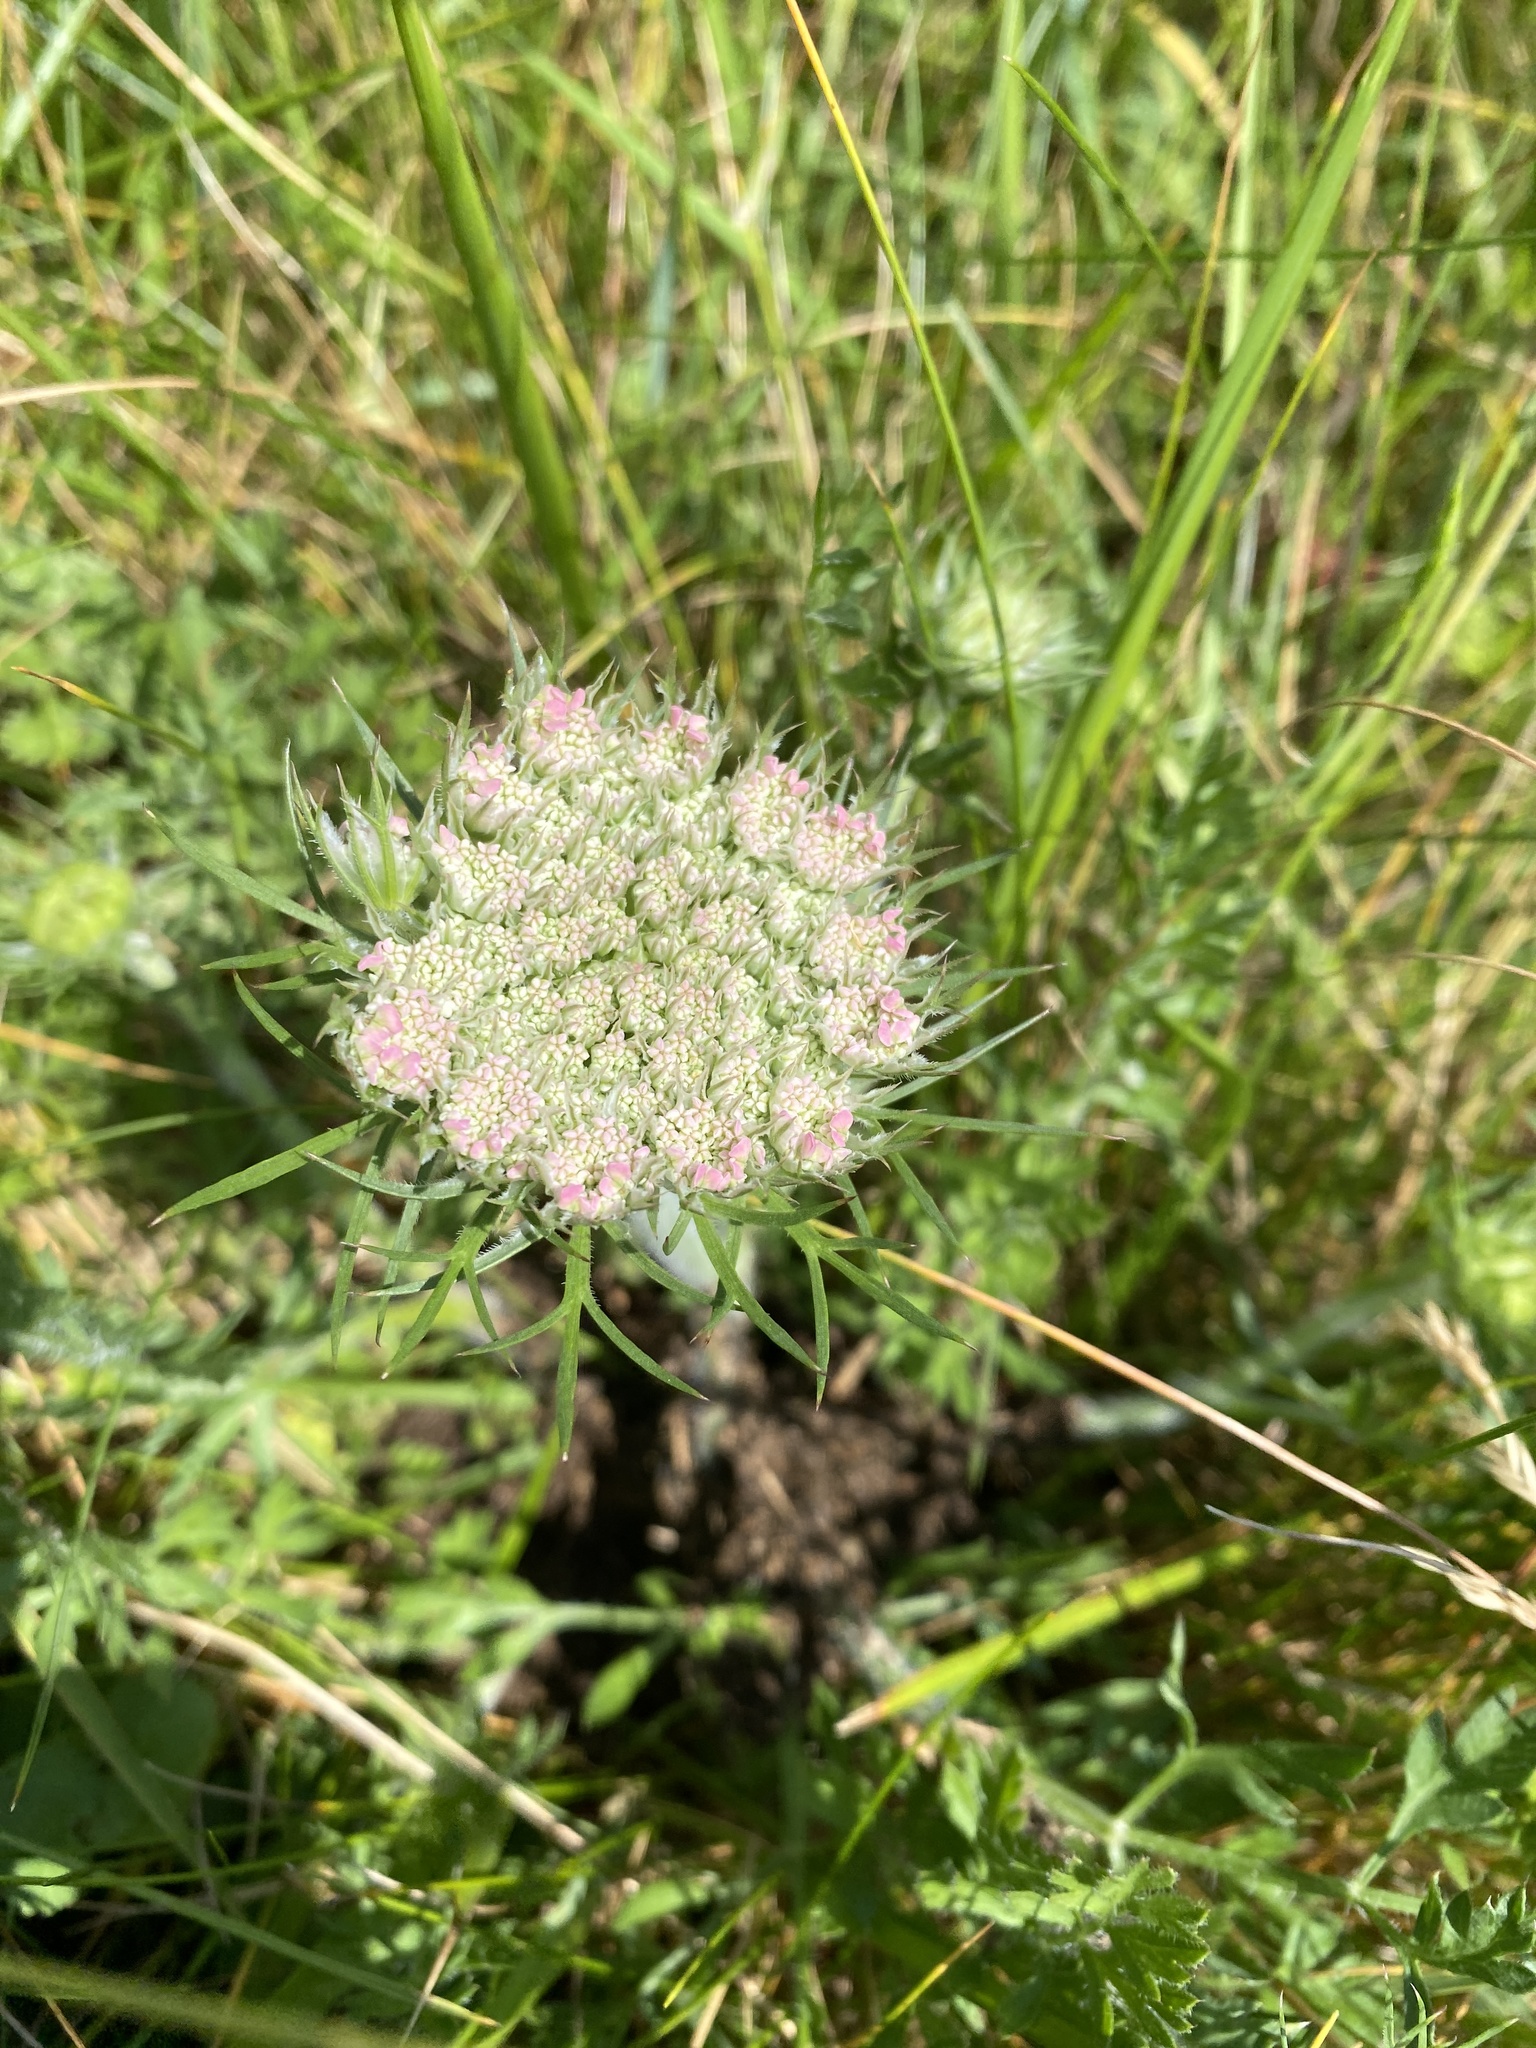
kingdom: Plantae
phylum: Tracheophyta
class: Magnoliopsida
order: Apiales
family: Apiaceae
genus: Daucus
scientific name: Daucus carota
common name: Wild carrot
